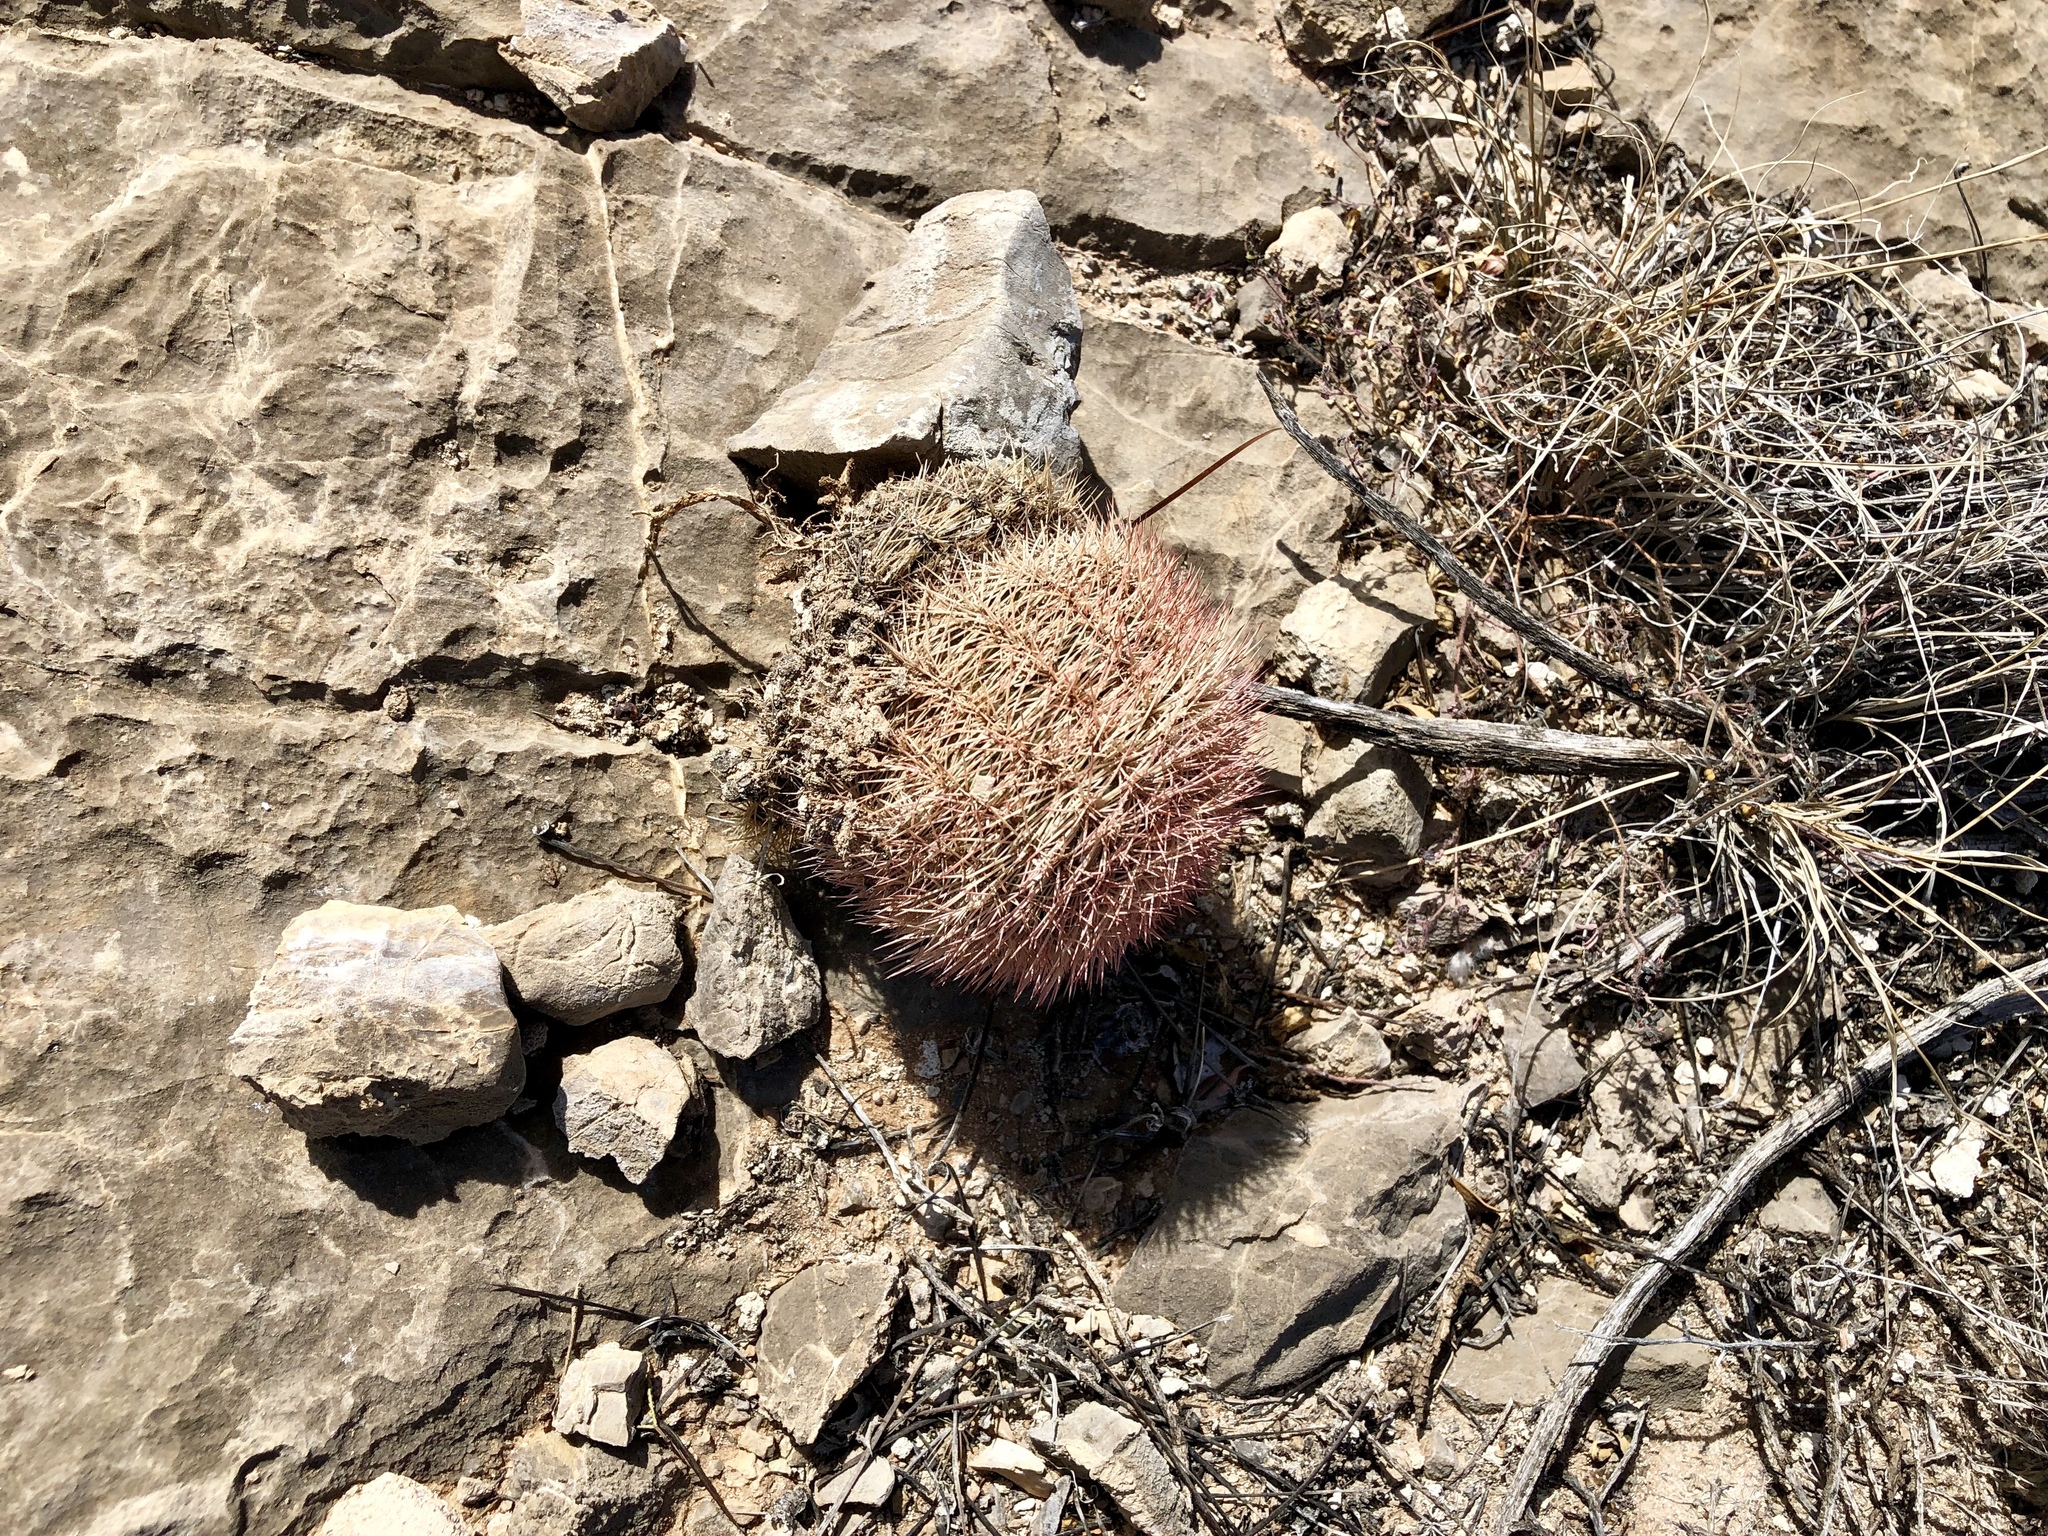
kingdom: Plantae
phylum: Tracheophyta
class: Magnoliopsida
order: Caryophyllales
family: Cactaceae
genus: Echinocereus
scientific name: Echinocereus dasyacanthus
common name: Spiny hedgehog cactus
